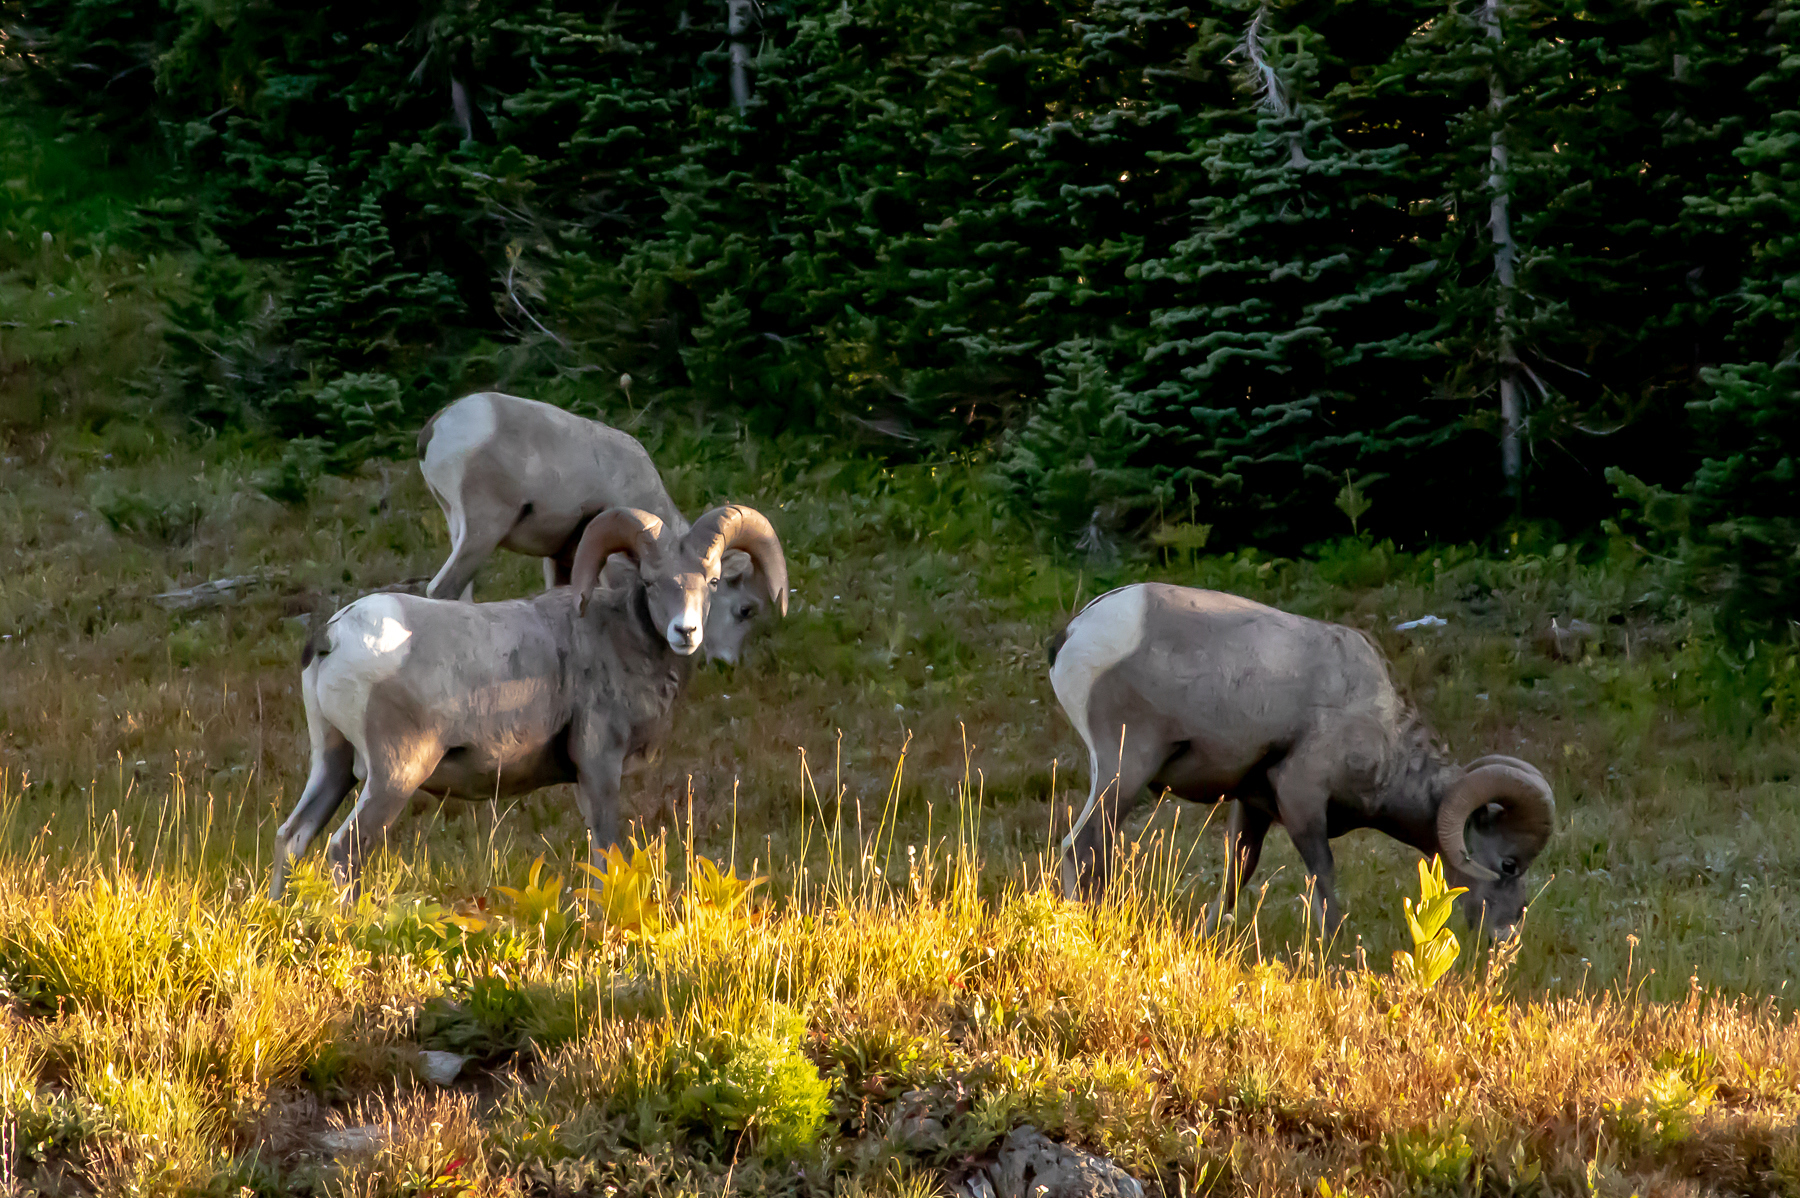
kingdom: Animalia
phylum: Chordata
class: Mammalia
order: Artiodactyla
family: Bovidae
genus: Ovis
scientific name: Ovis canadensis
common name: Bighorn sheep
